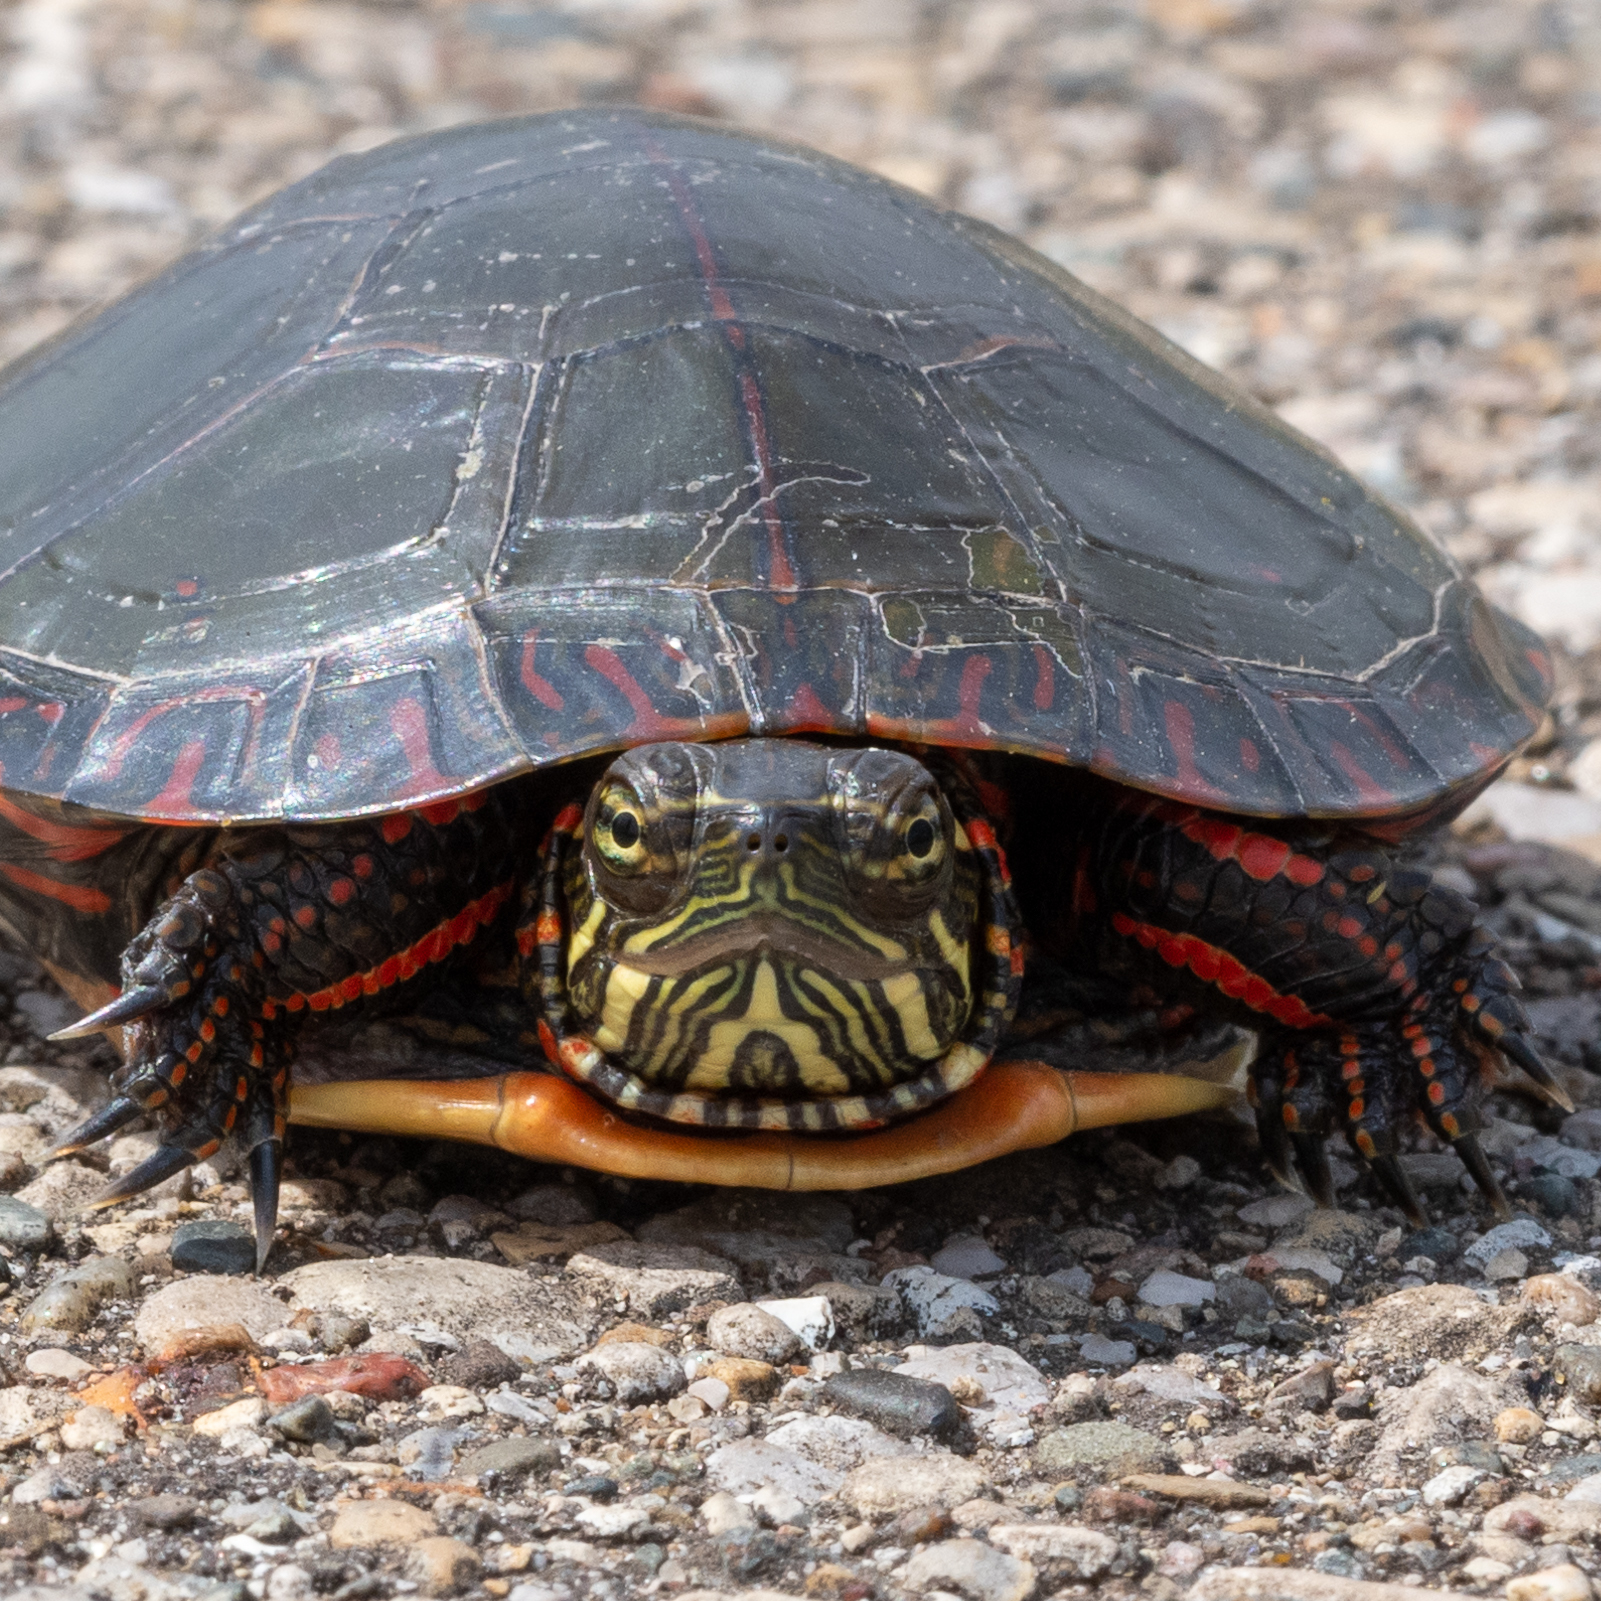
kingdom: Animalia
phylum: Chordata
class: Testudines
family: Emydidae
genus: Chrysemys
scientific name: Chrysemys picta
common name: Painted turtle
